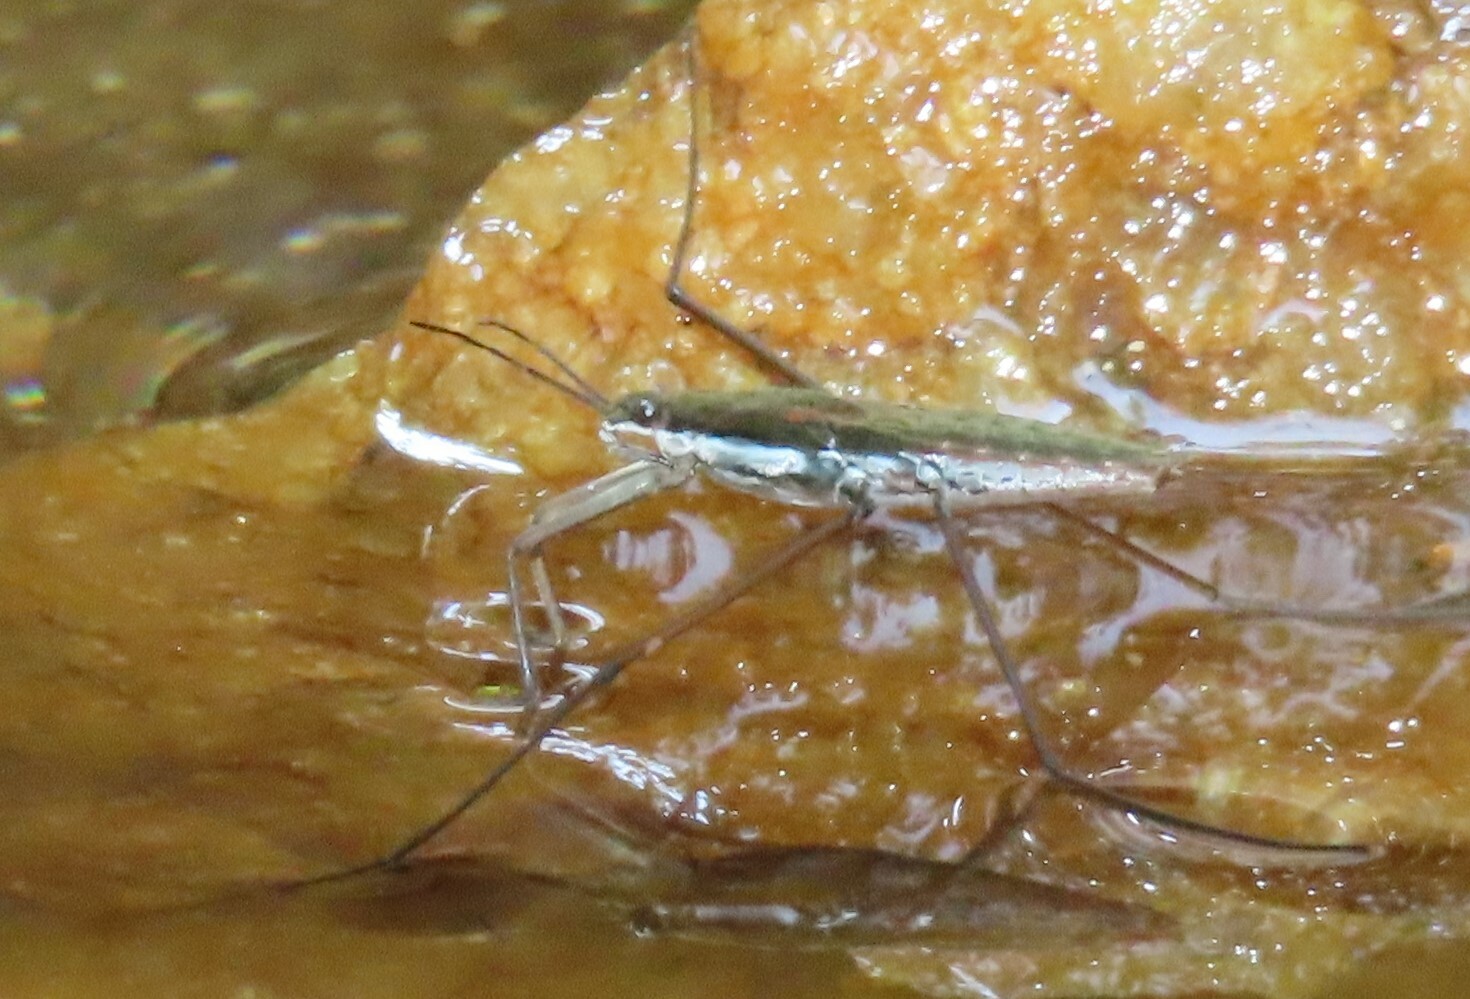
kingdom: Animalia
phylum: Arthropoda
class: Insecta
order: Hemiptera
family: Gerridae
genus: Aquarius
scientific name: Aquarius
